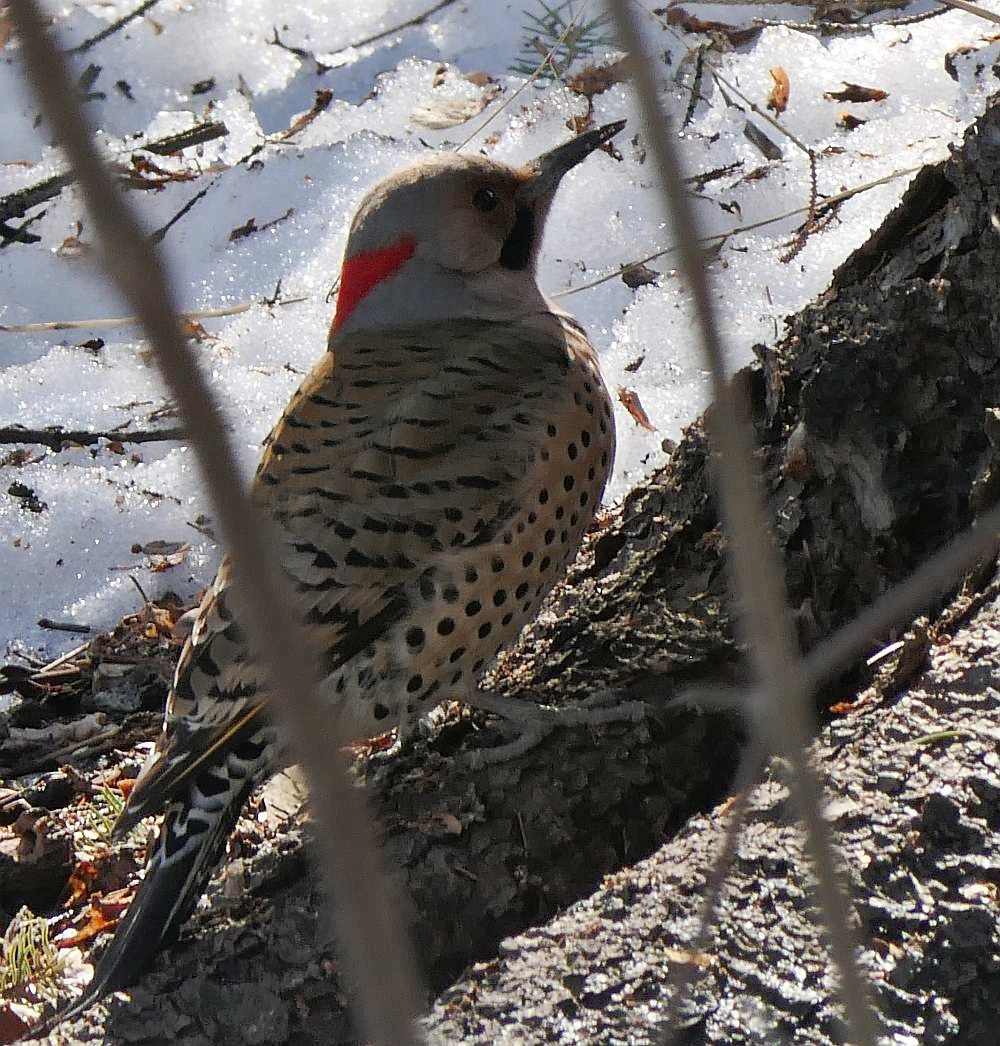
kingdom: Animalia
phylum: Chordata
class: Aves
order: Piciformes
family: Picidae
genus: Colaptes
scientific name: Colaptes auratus
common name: Northern flicker
